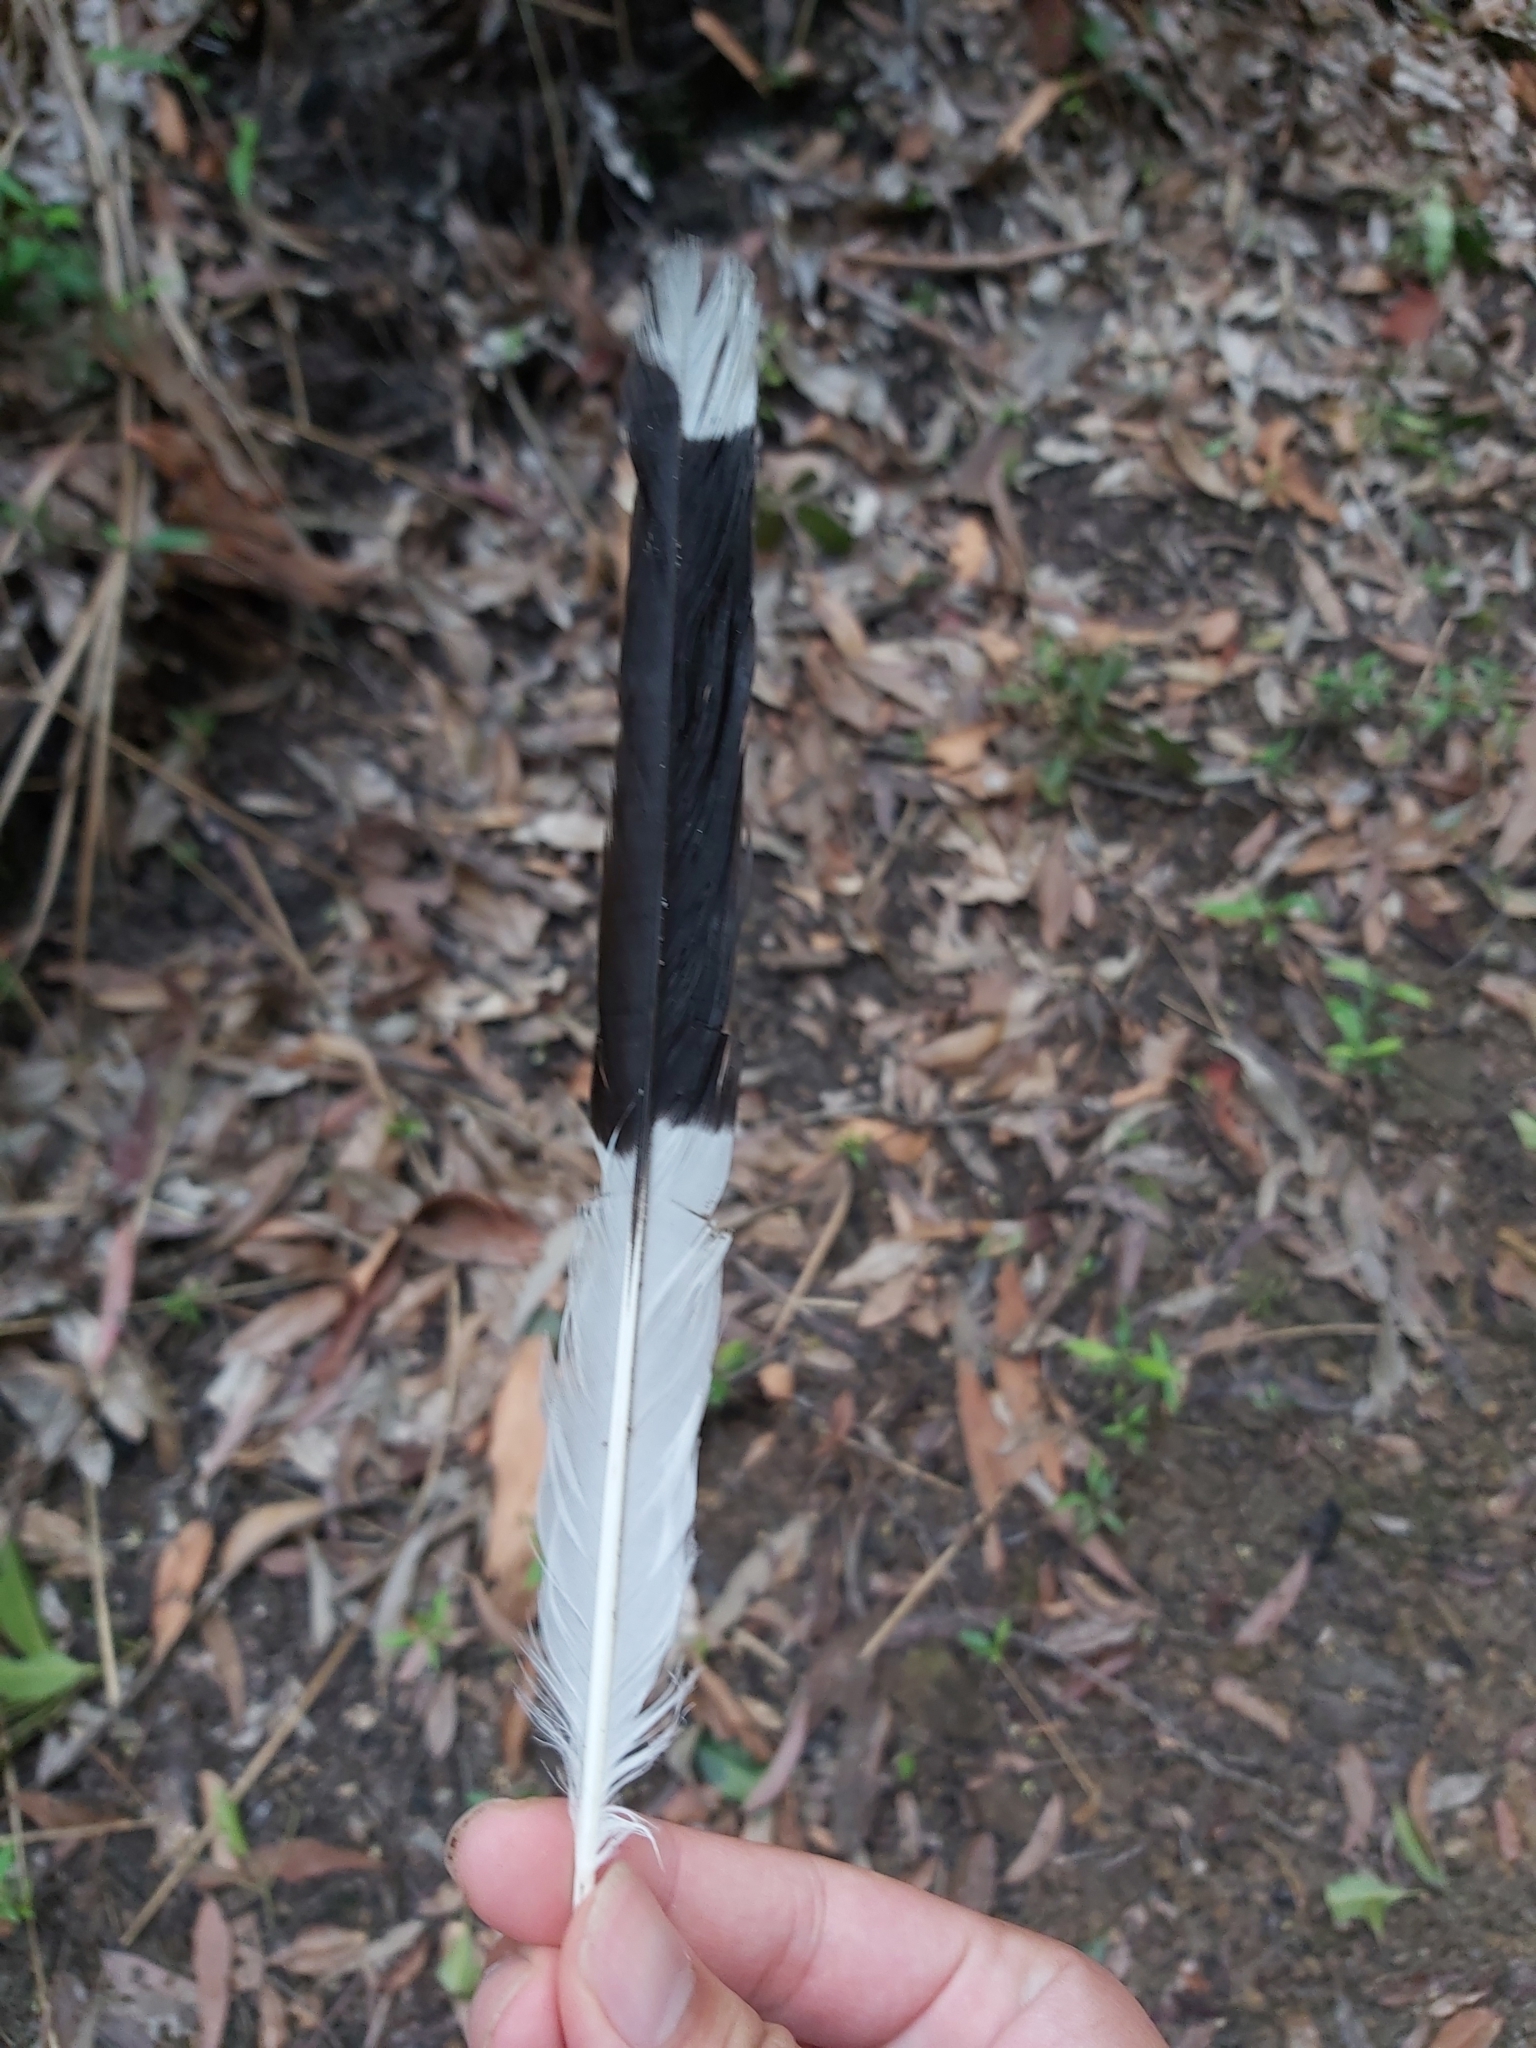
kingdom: Animalia
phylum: Chordata
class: Aves
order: Passeriformes
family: Cracticidae
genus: Strepera
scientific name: Strepera graculina
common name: Pied currawong
